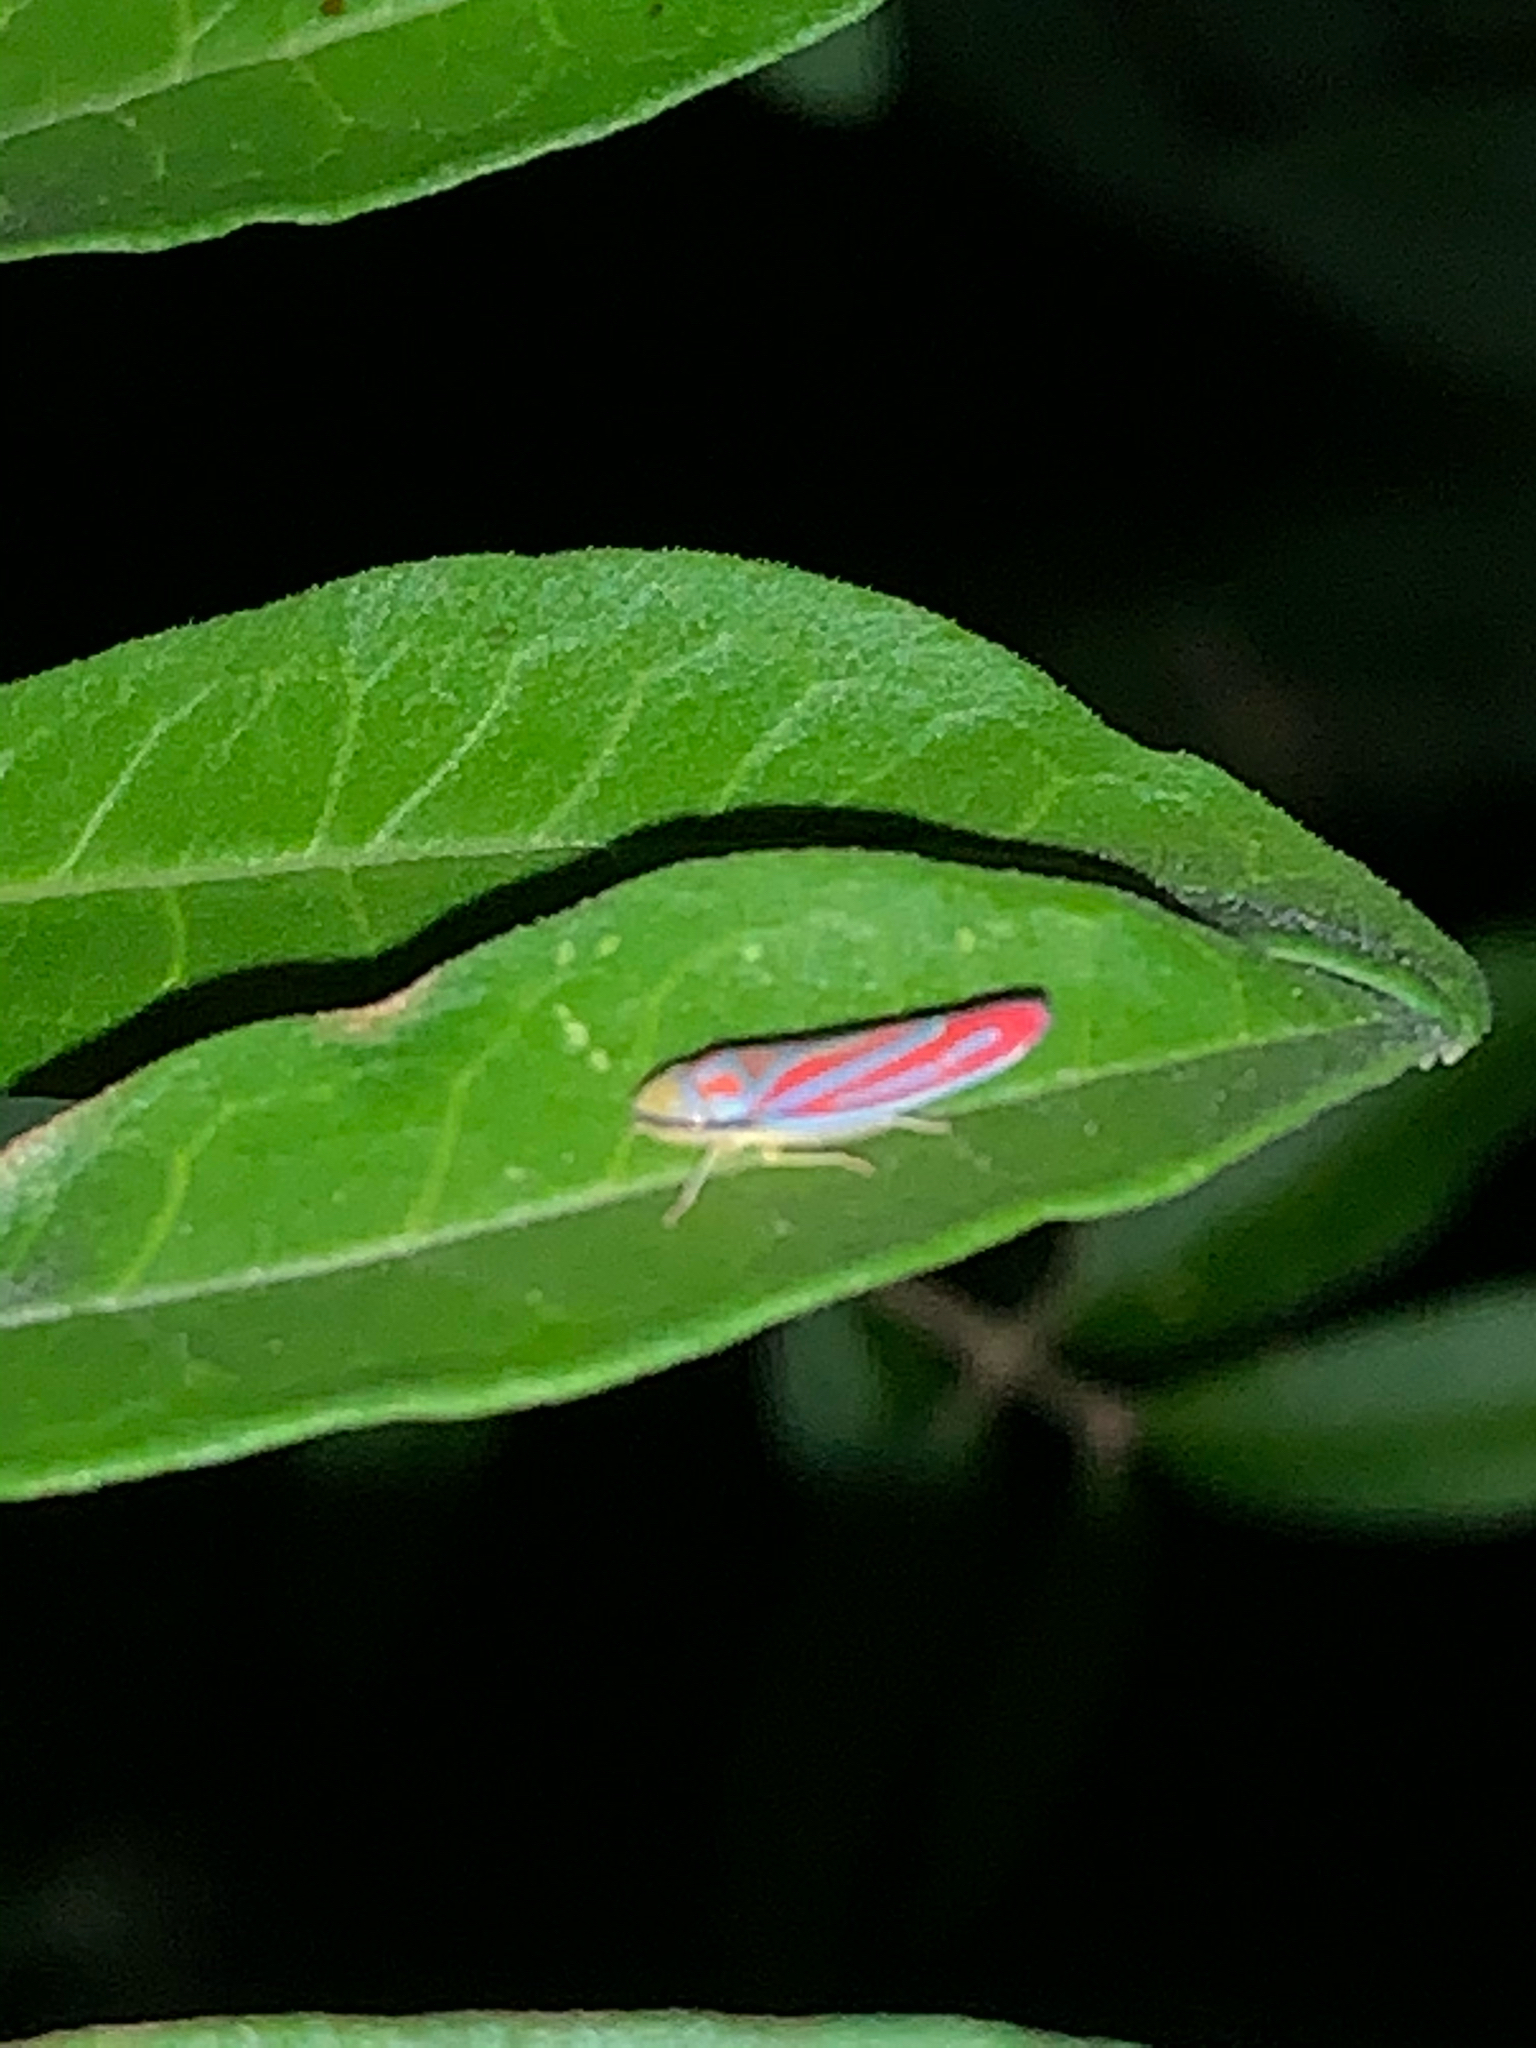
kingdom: Animalia
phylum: Arthropoda
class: Insecta
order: Hemiptera
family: Cicadellidae
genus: Graphocephala
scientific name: Graphocephala coccinea
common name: Candy-striped leafhopper
